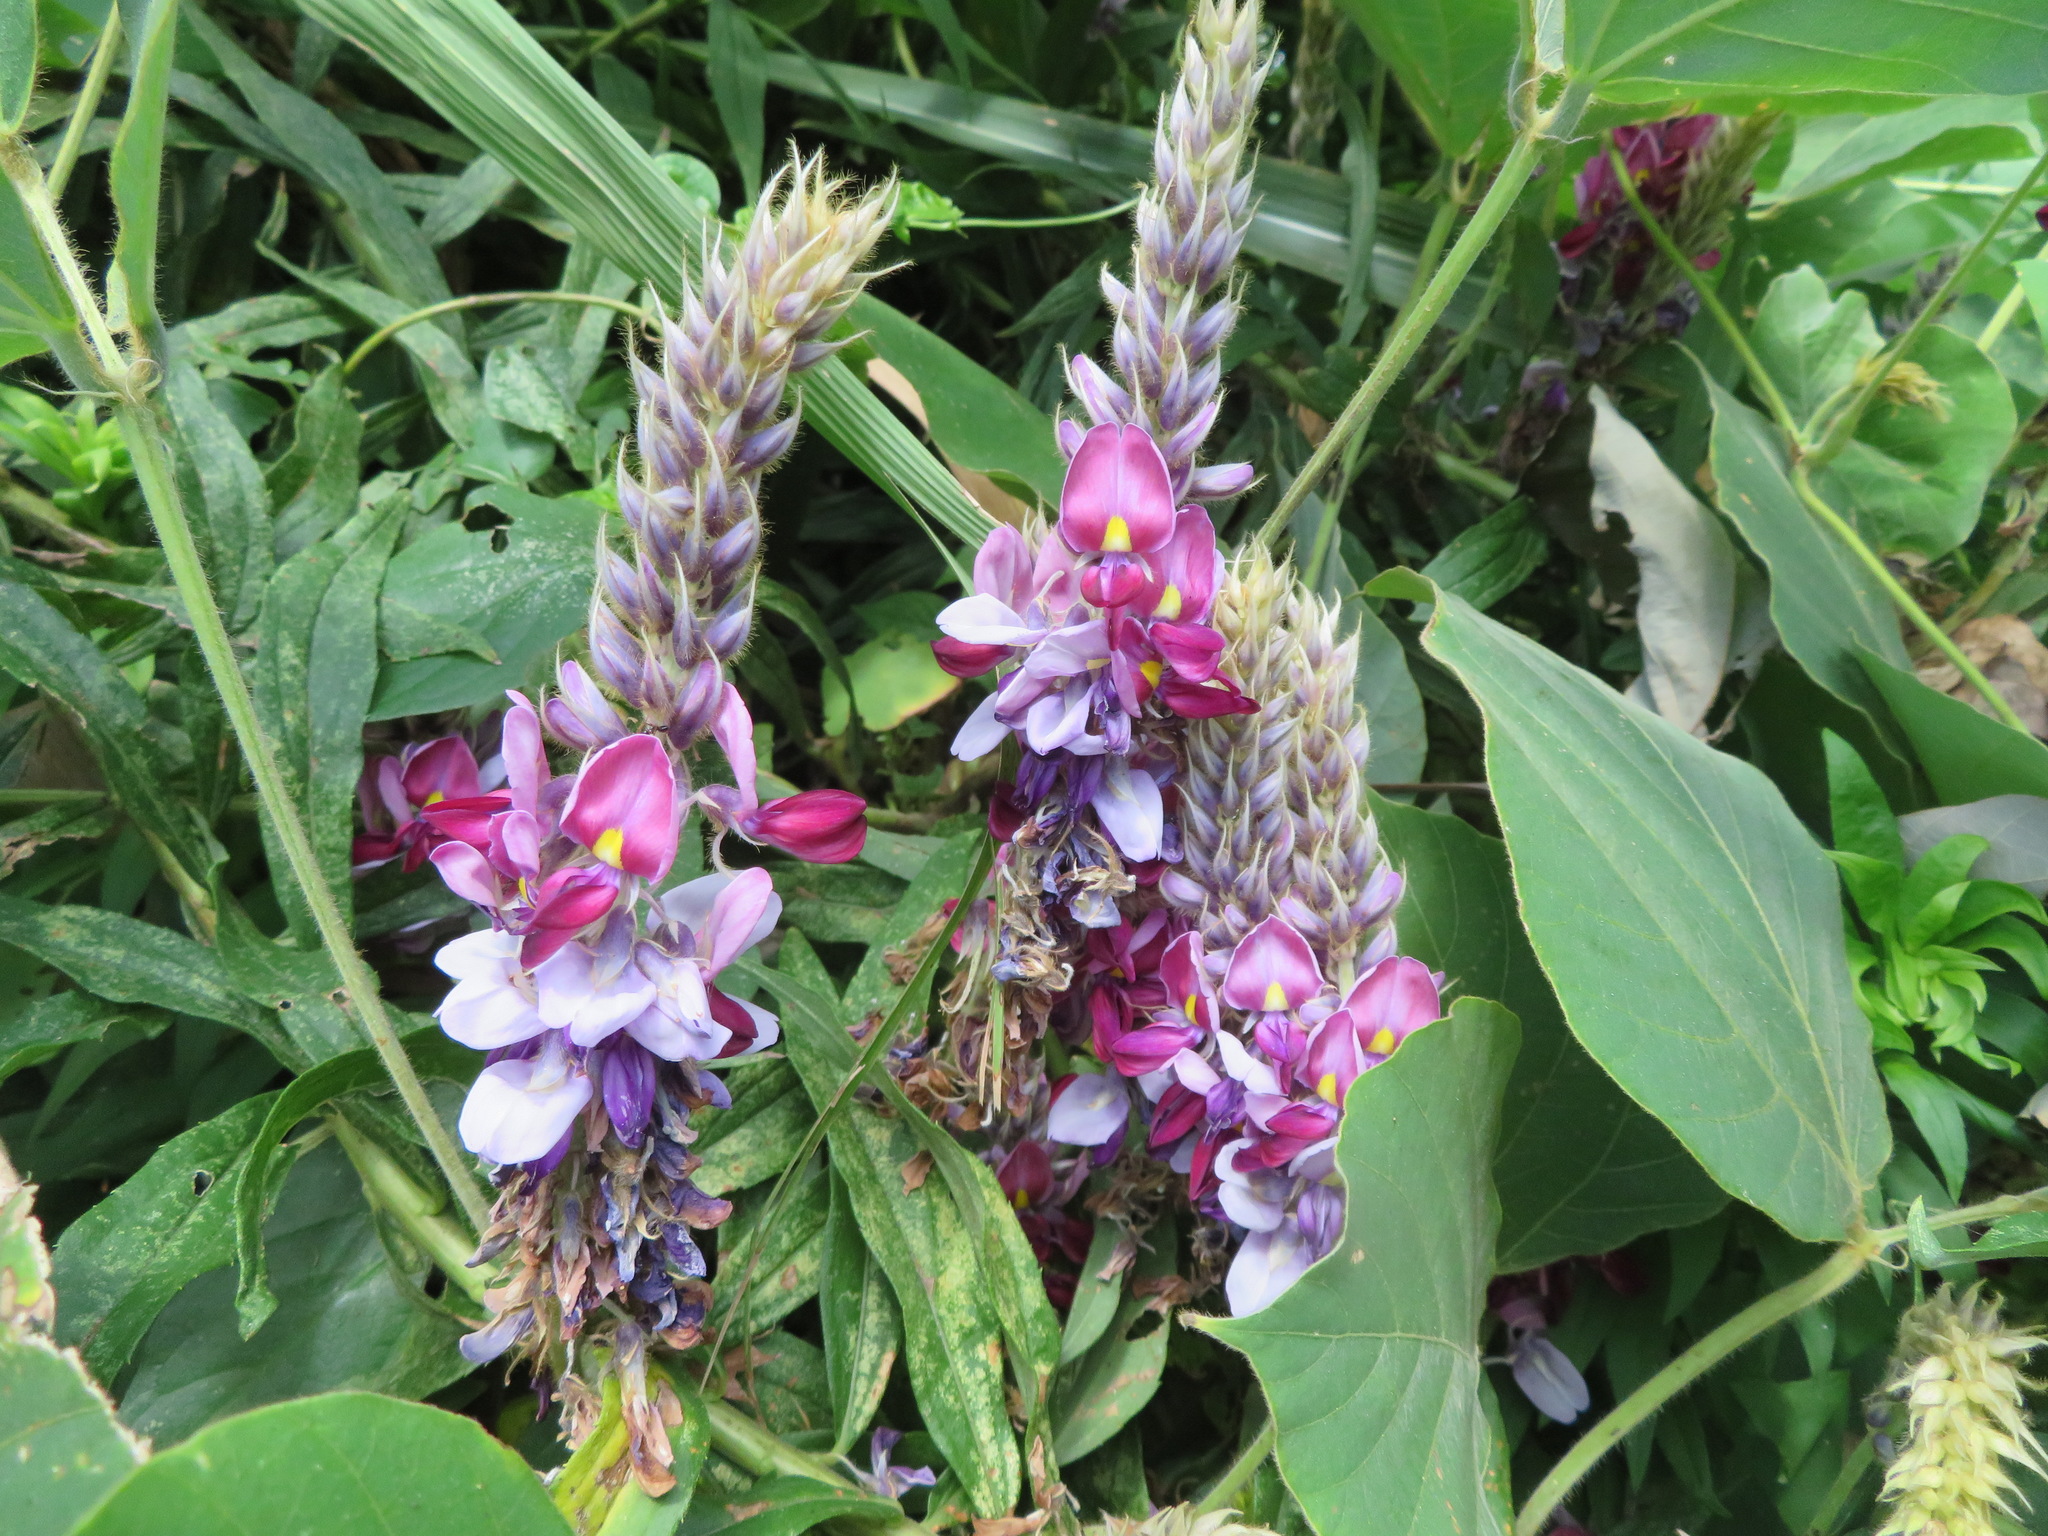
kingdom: Plantae
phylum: Tracheophyta
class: Magnoliopsida
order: Fabales
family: Fabaceae
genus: Pueraria
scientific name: Pueraria montana
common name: Kudzu
